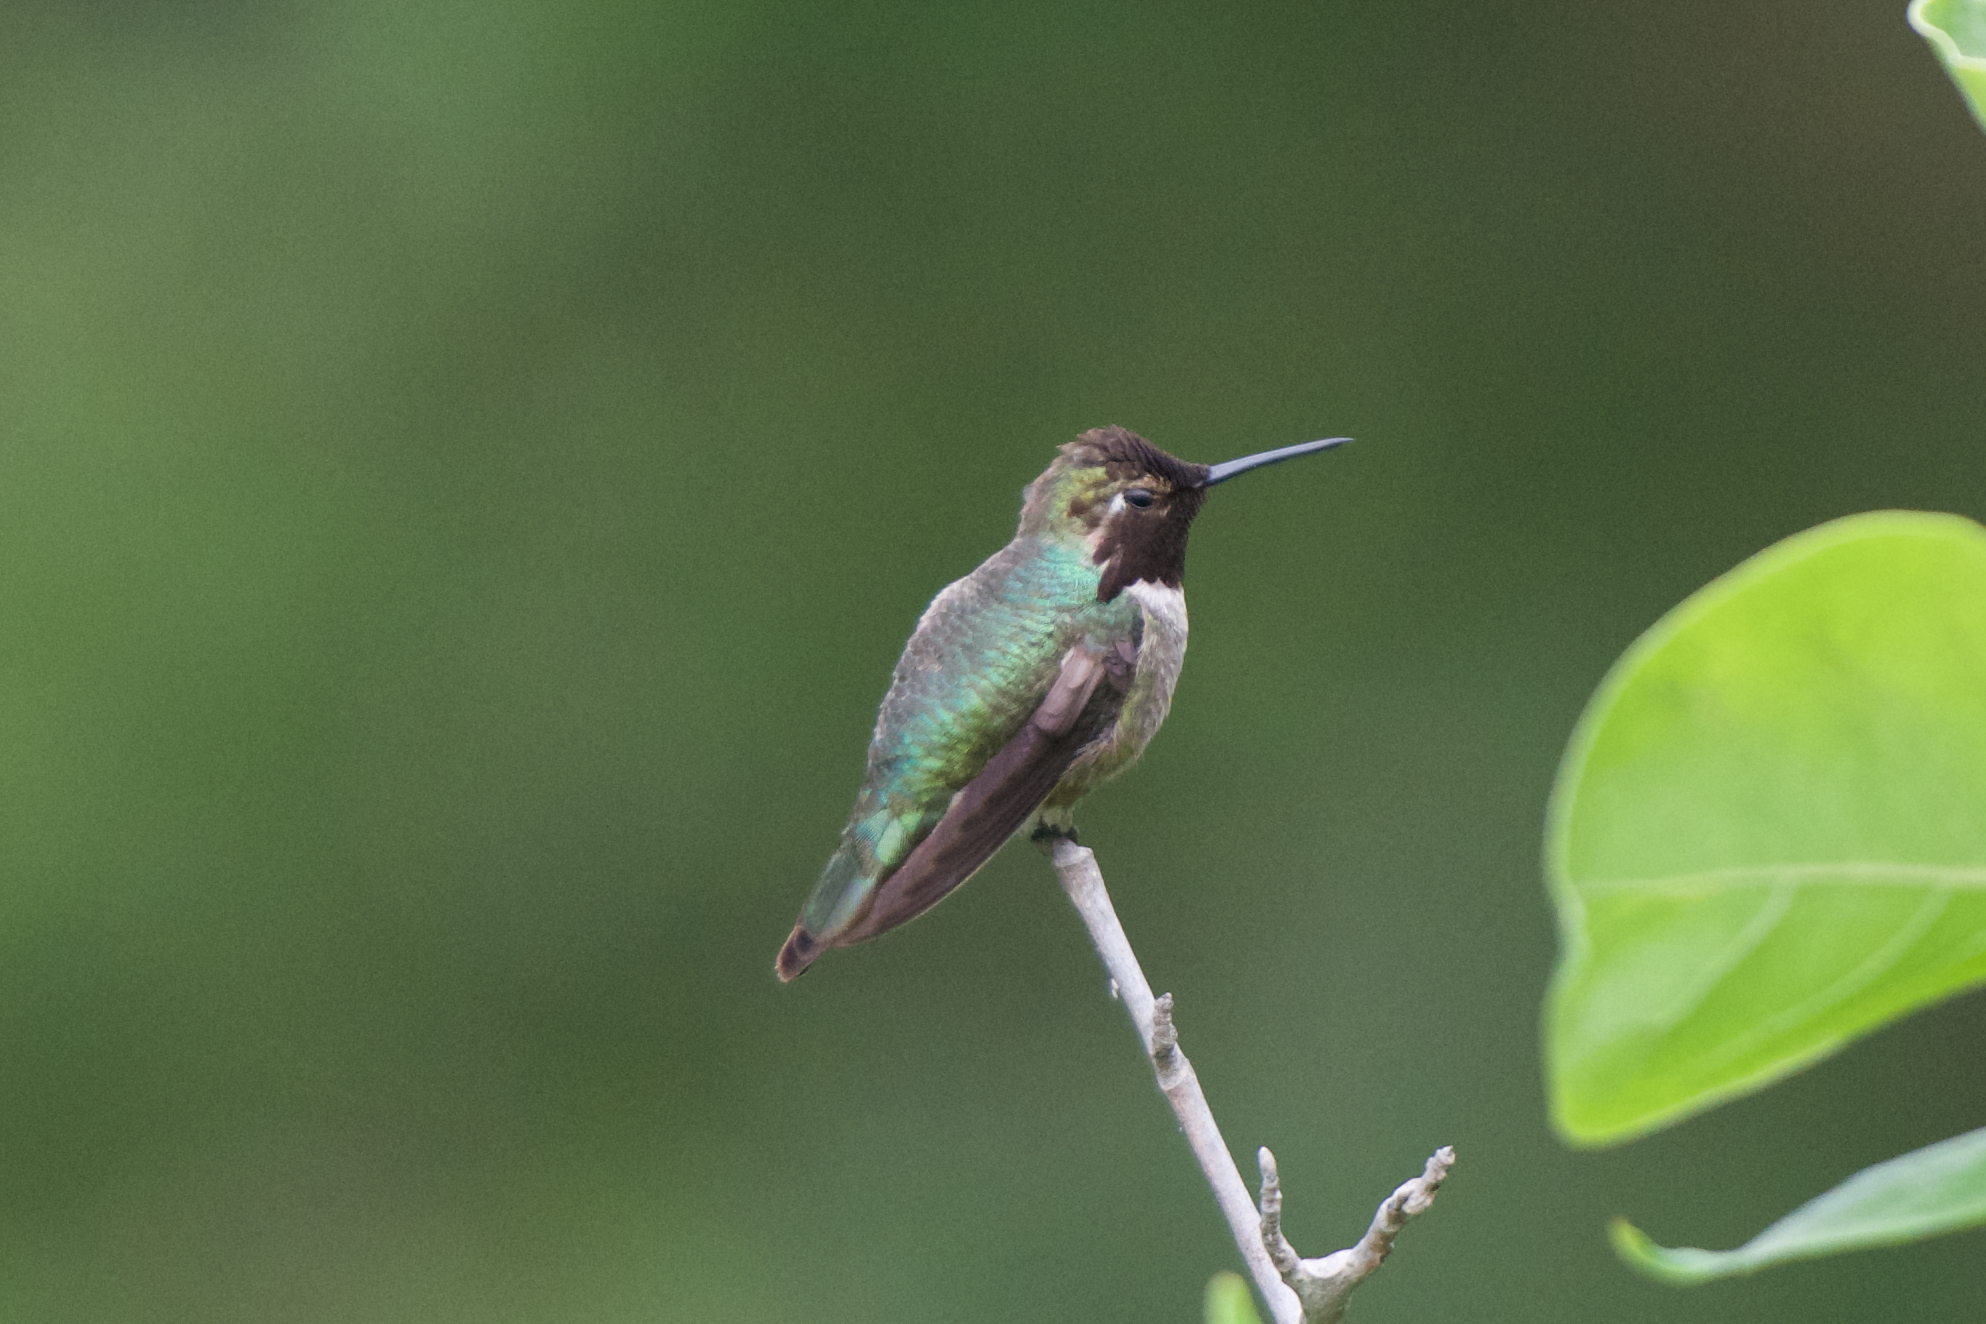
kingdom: Animalia
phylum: Chordata
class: Aves
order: Apodiformes
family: Trochilidae
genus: Calypte
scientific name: Calypte anna
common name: Anna's hummingbird
